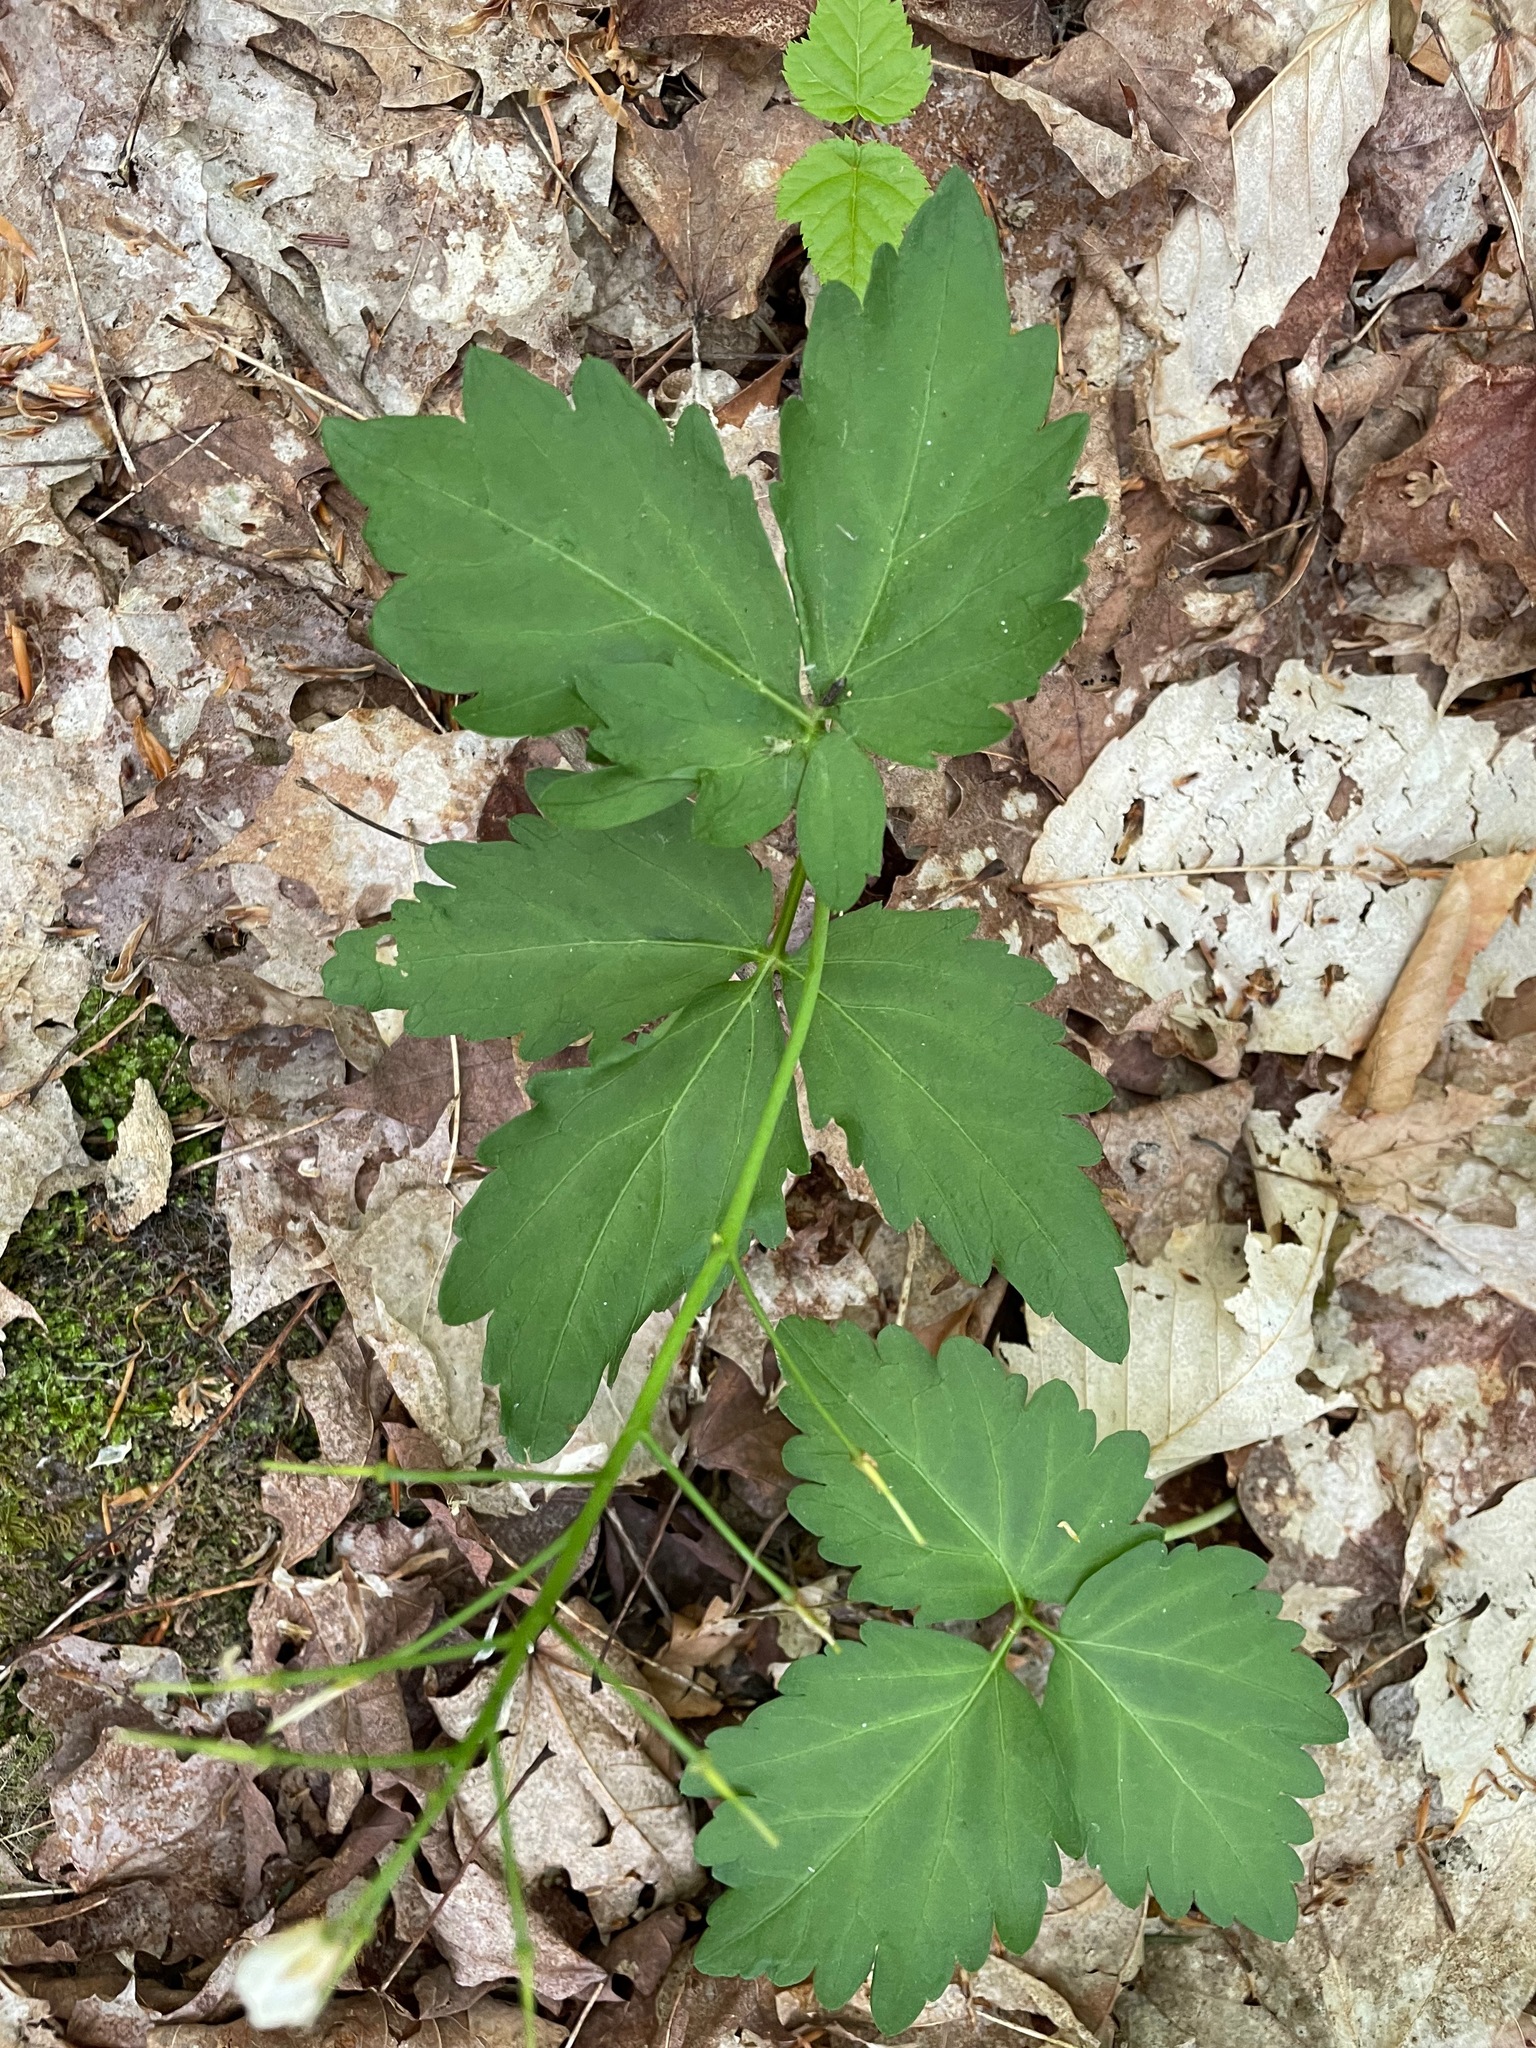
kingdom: Plantae
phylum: Tracheophyta
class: Magnoliopsida
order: Brassicales
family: Brassicaceae
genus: Cardamine
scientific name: Cardamine diphylla
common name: Broad-leaved toothwort
